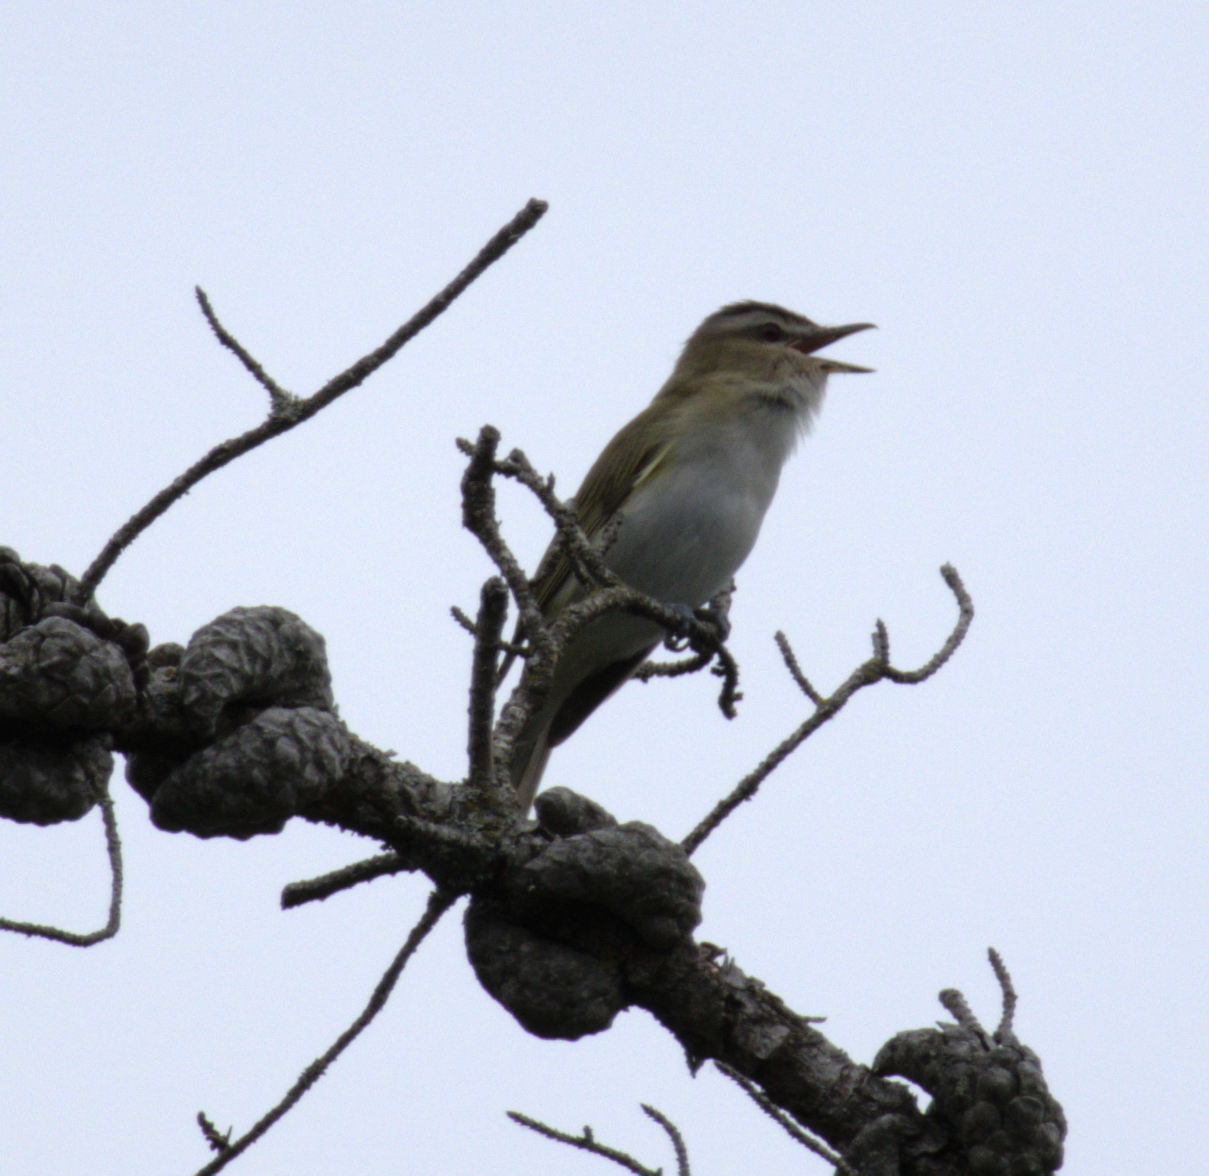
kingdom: Animalia
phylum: Chordata
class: Aves
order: Passeriformes
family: Vireonidae
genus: Vireo
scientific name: Vireo olivaceus
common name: Red-eyed vireo
